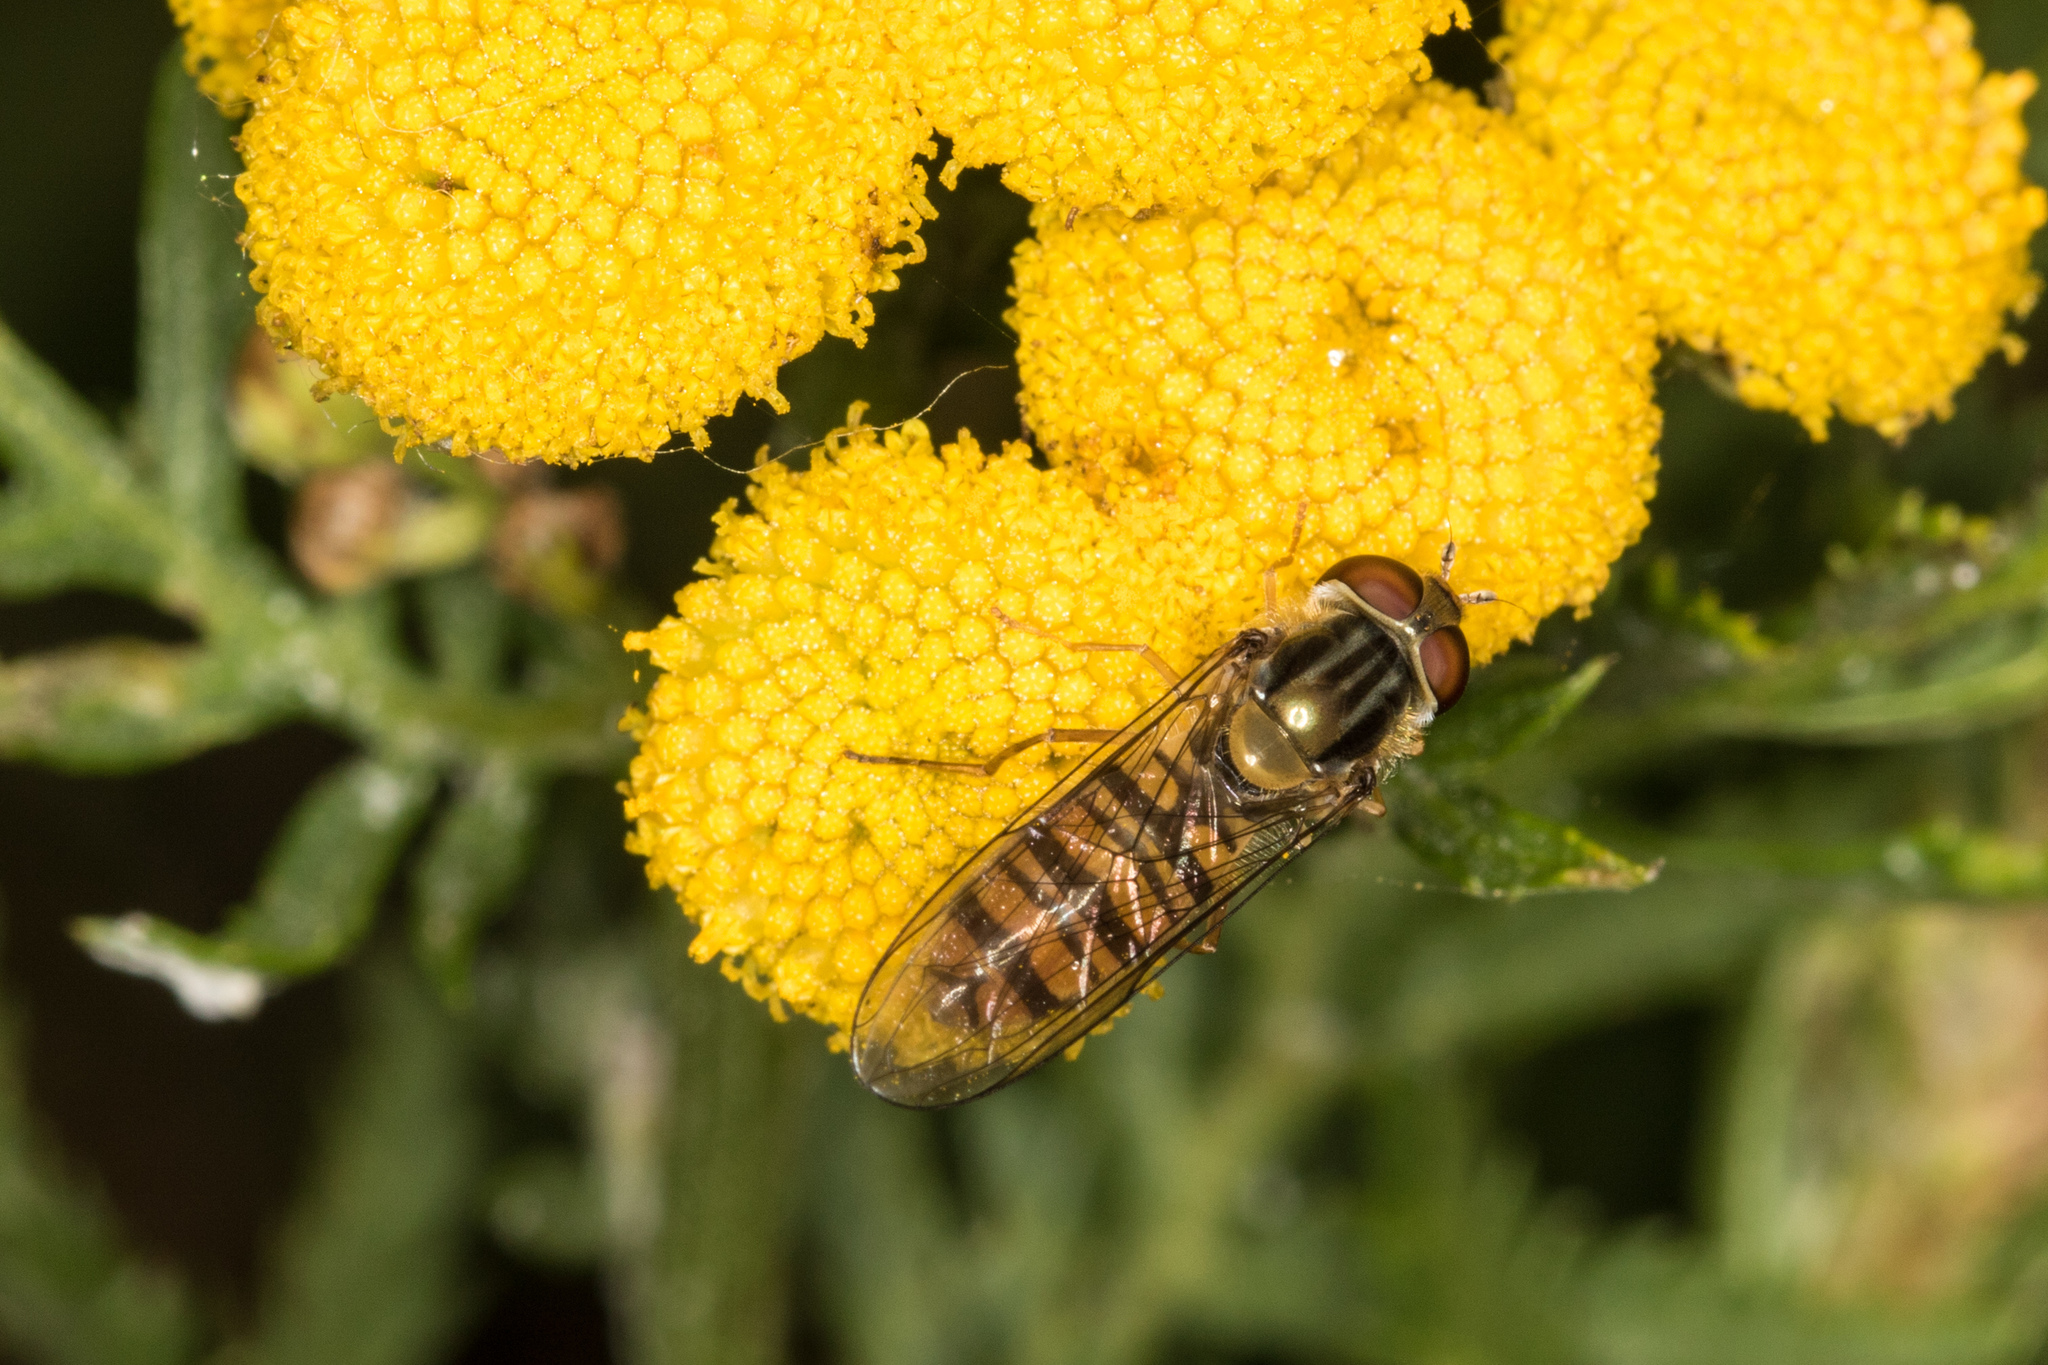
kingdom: Animalia
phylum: Arthropoda
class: Insecta
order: Diptera
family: Syrphidae
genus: Episyrphus
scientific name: Episyrphus balteatus
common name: Marmalade hoverfly
